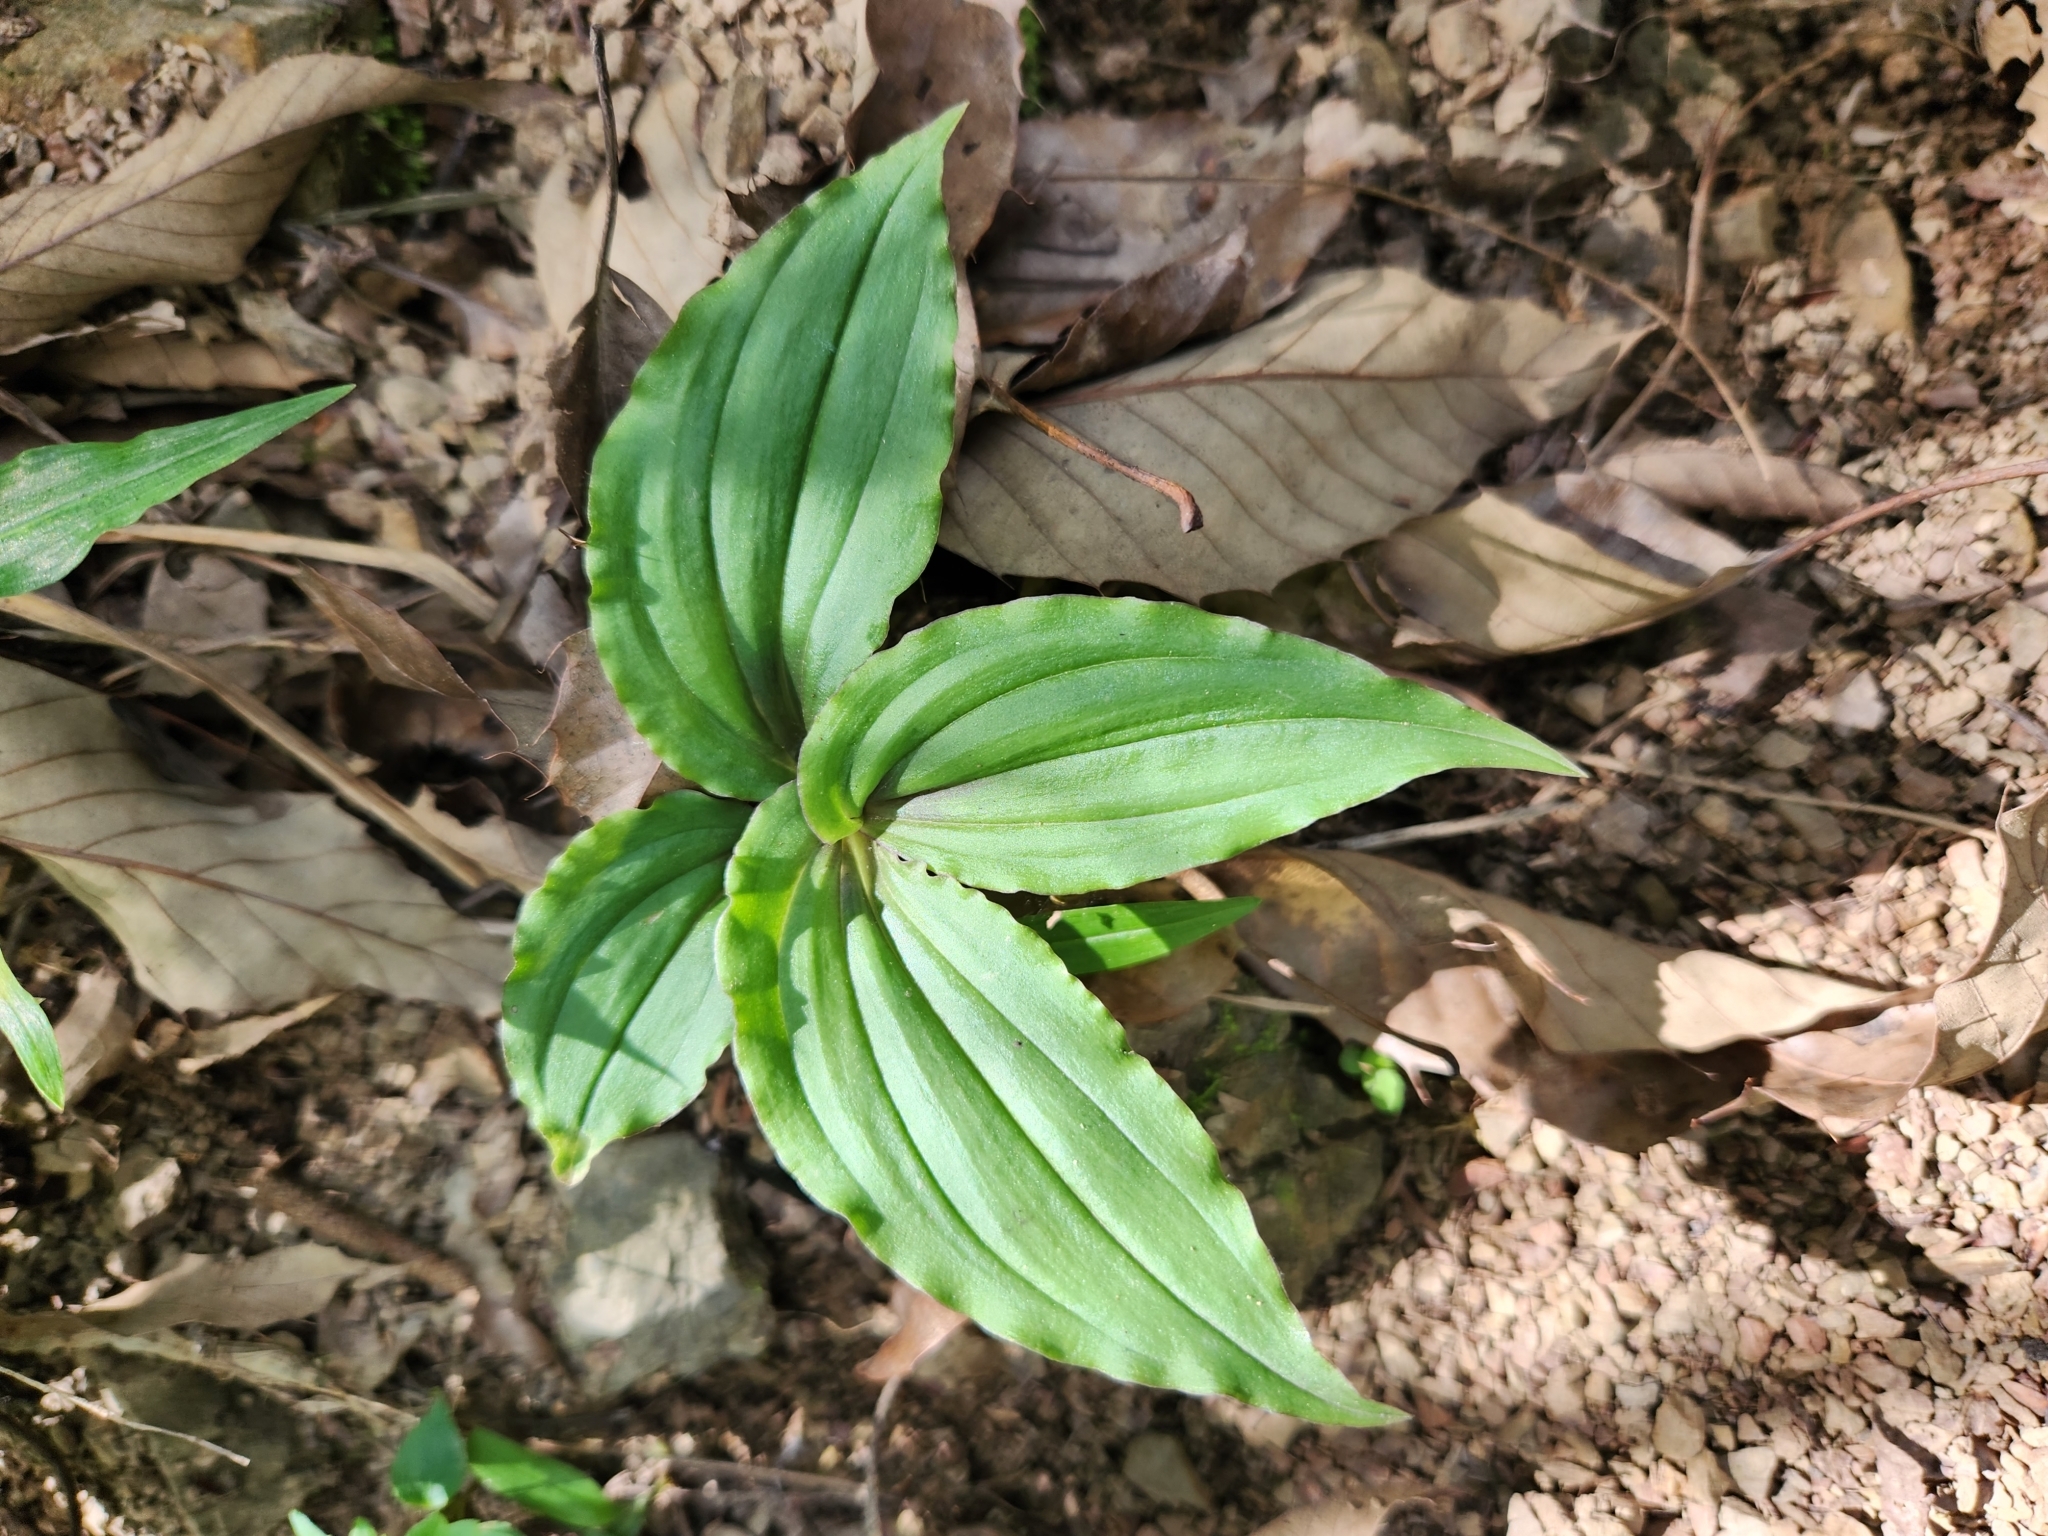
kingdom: Plantae
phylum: Tracheophyta
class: Liliopsida
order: Asparagales
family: Orchidaceae
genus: Crepidium
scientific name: Crepidium matsudae
